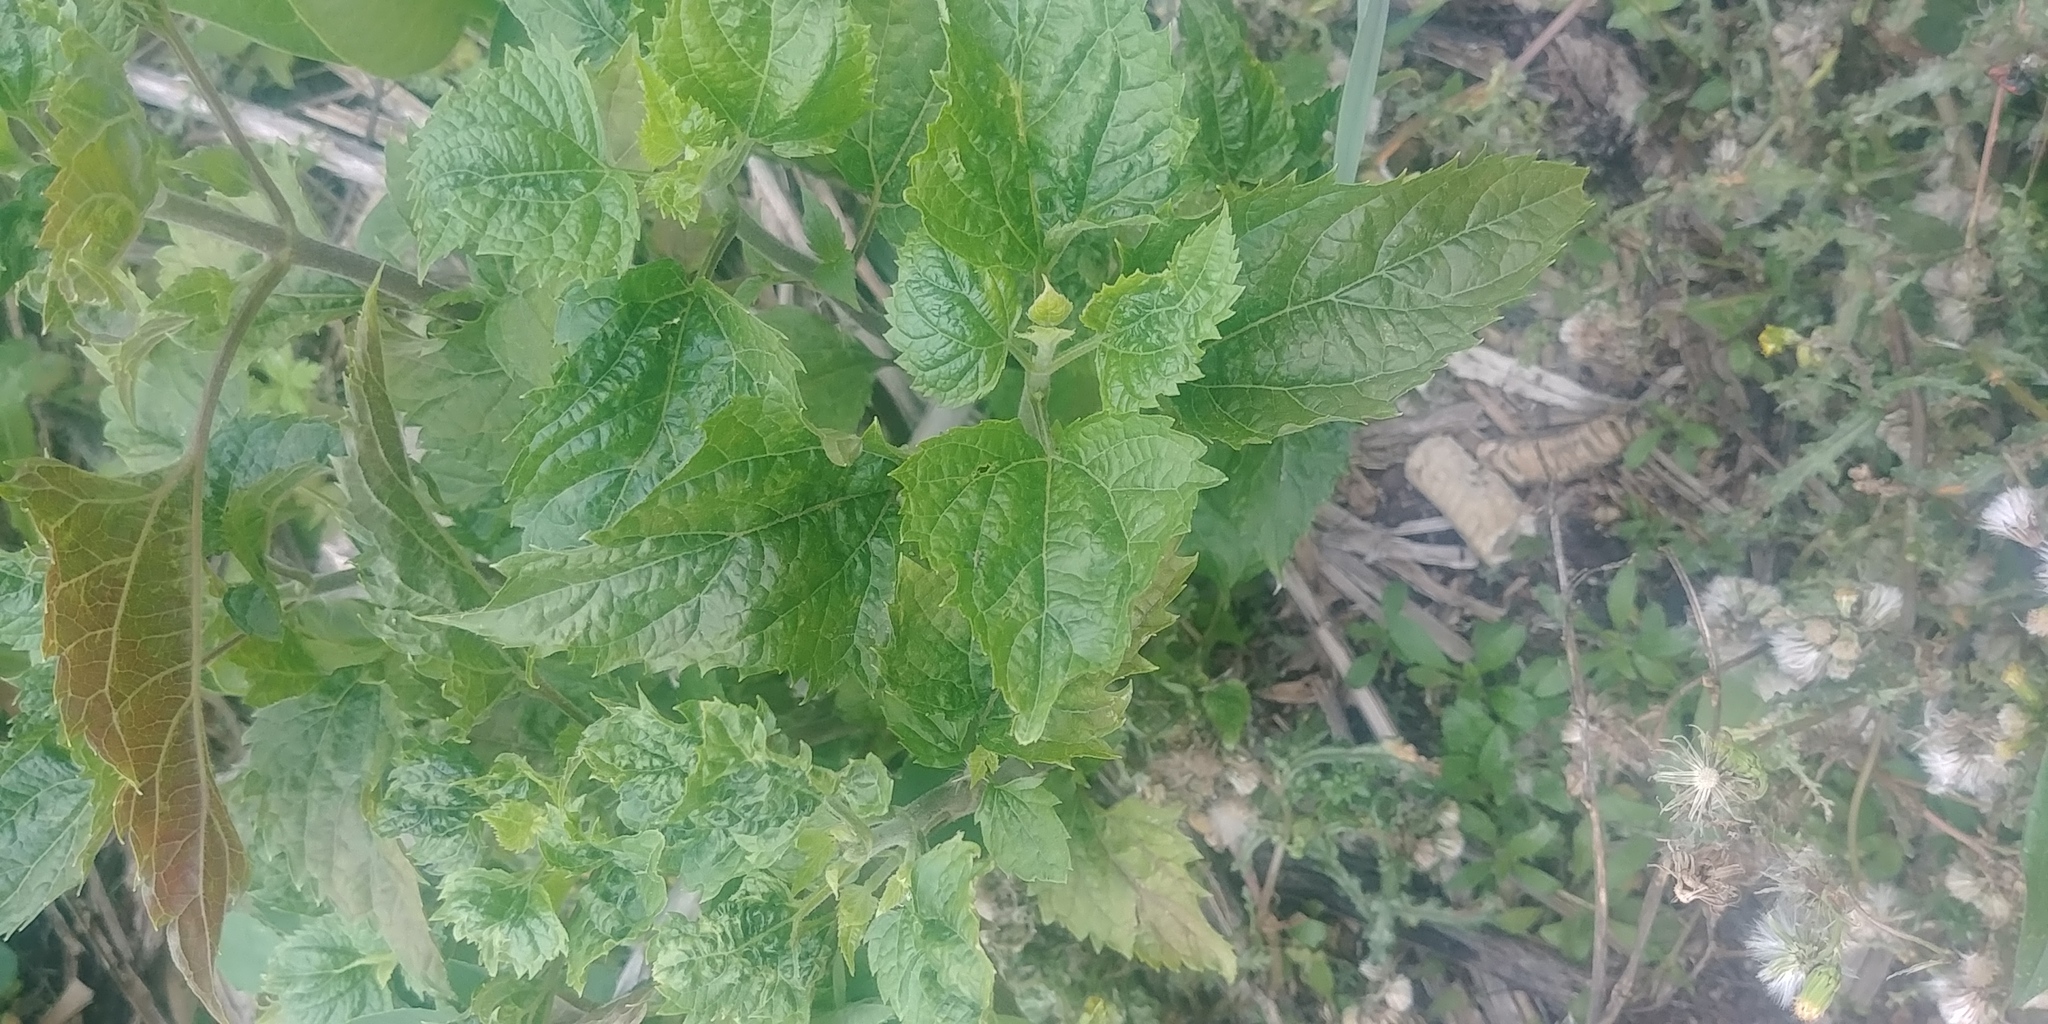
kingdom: Plantae
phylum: Tracheophyta
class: Magnoliopsida
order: Asterales
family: Asteraceae
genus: Ageratina
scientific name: Ageratina altissima
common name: White snakeroot
